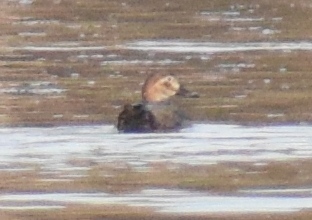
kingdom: Animalia
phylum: Chordata
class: Aves
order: Anseriformes
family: Anatidae
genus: Aythya
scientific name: Aythya ferina
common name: Common pochard
